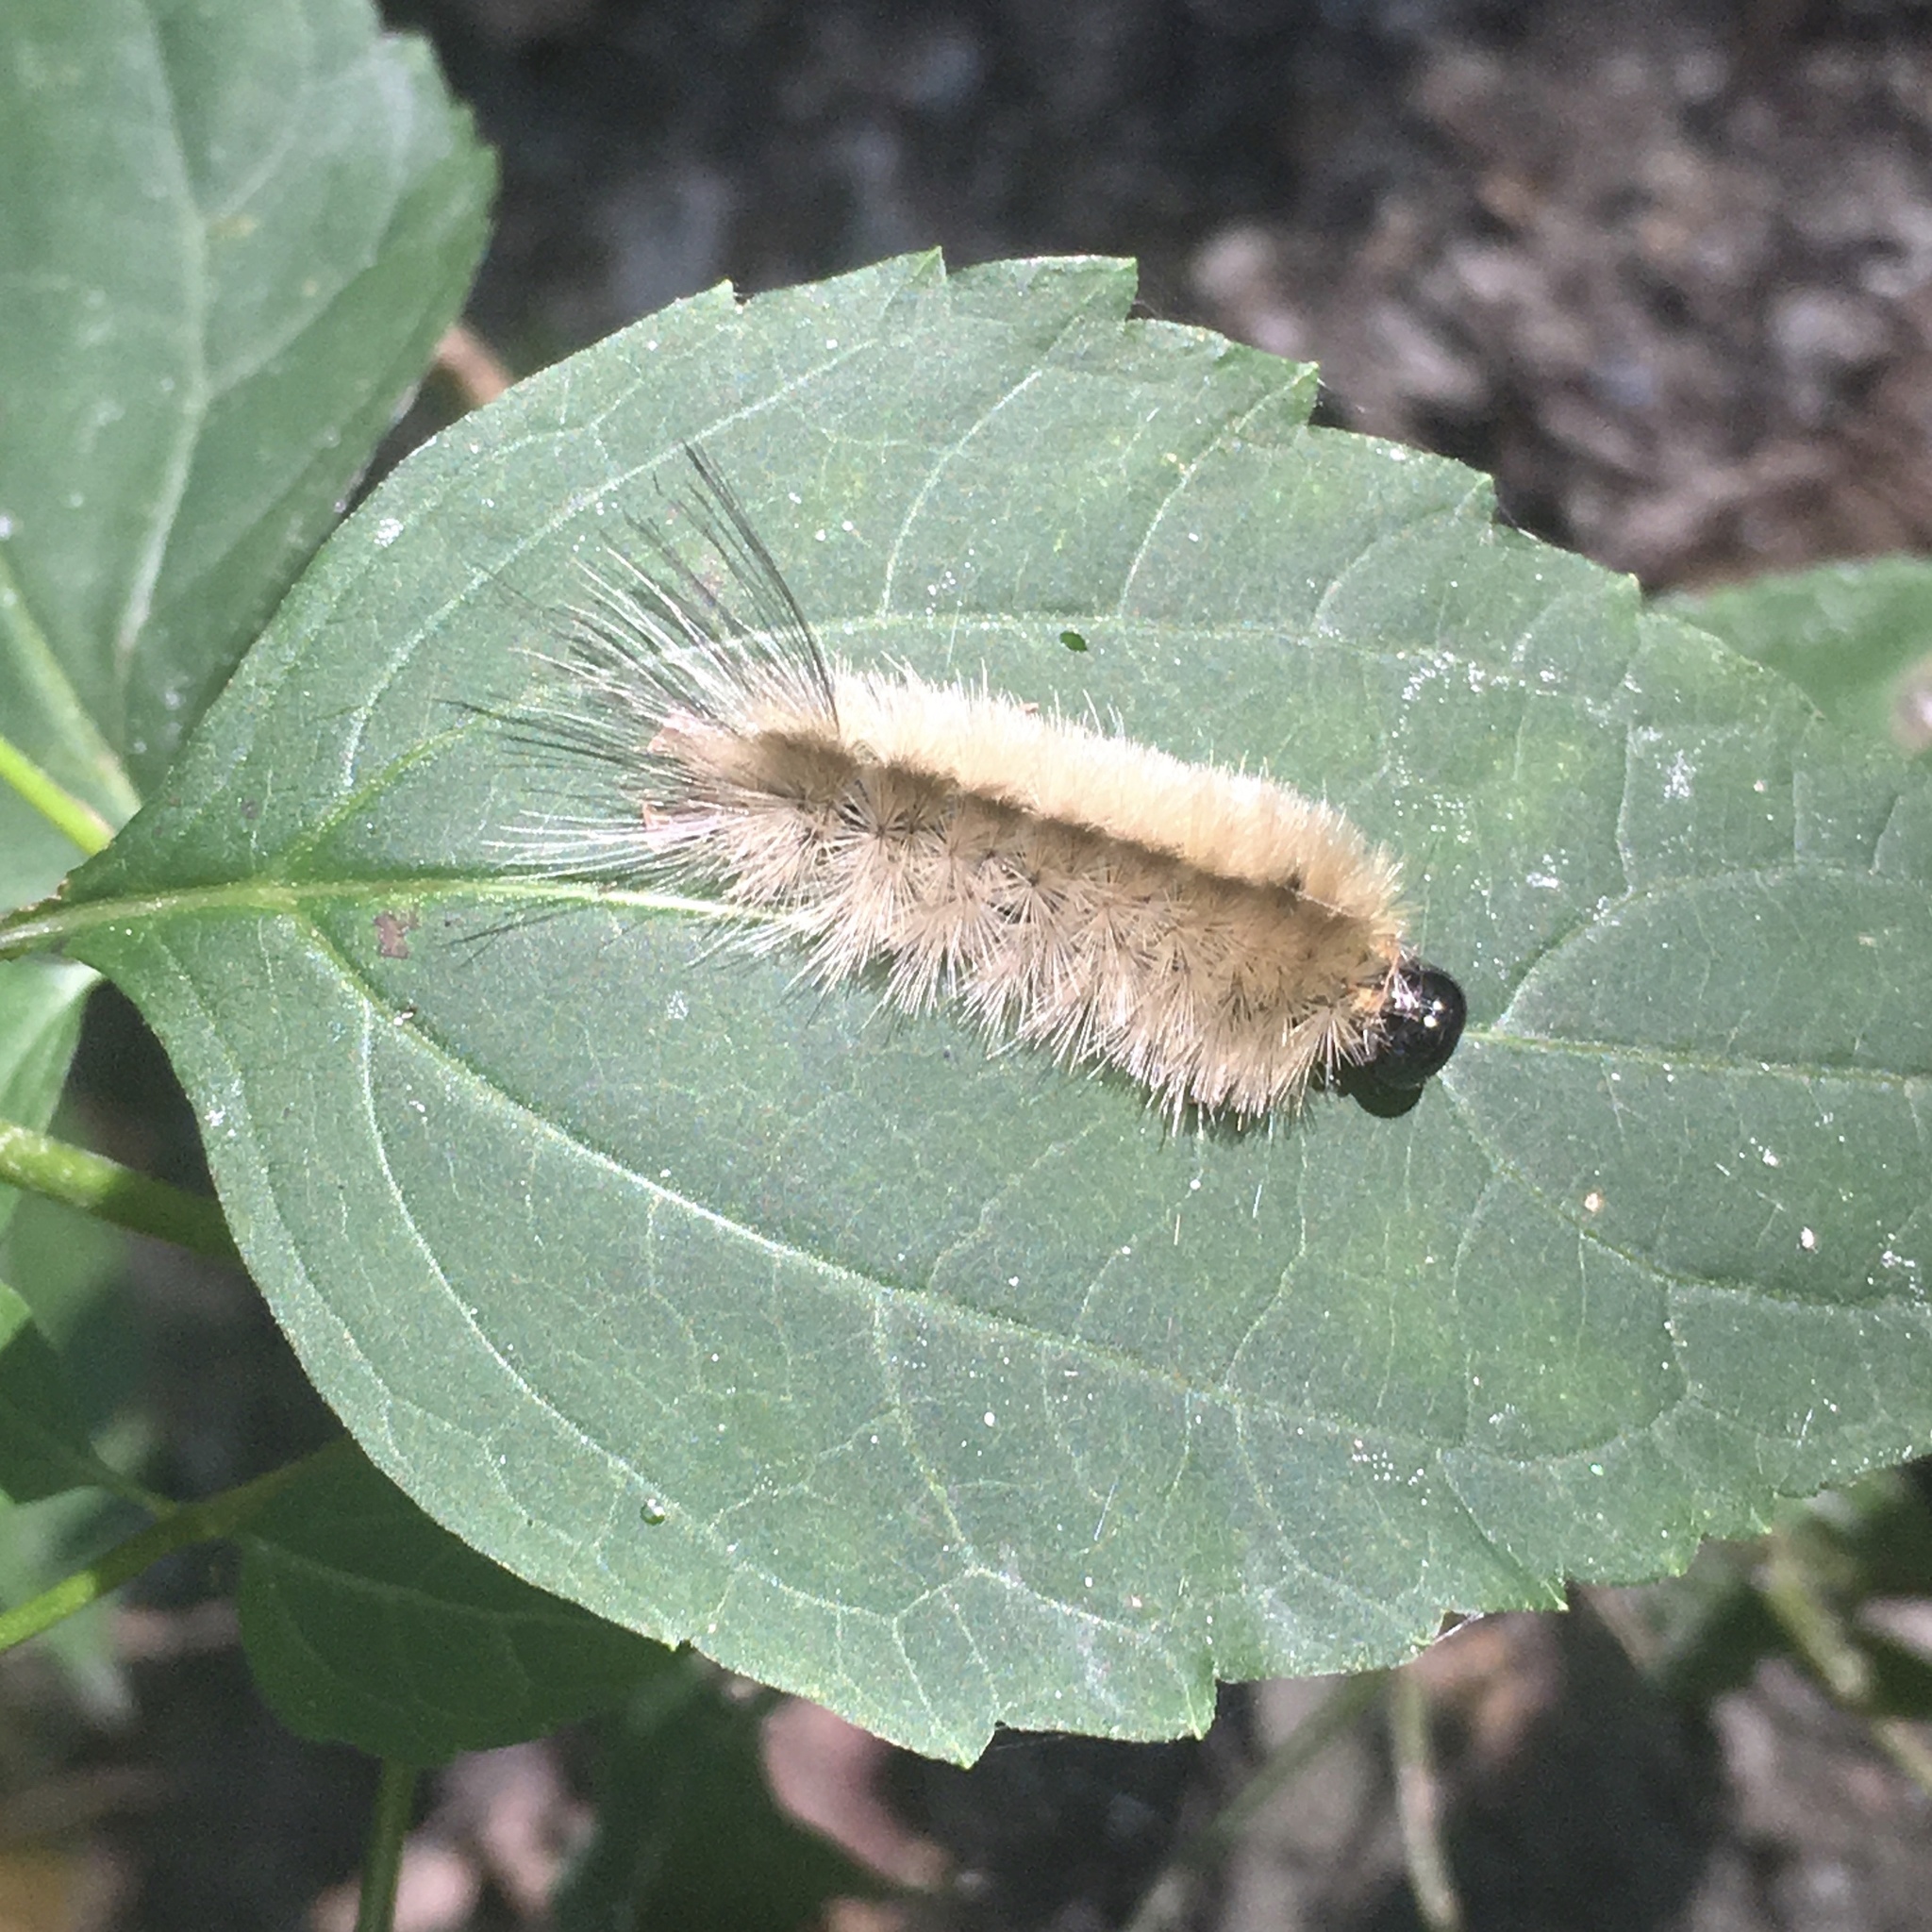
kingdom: Animalia
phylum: Arthropoda
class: Insecta
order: Lepidoptera
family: Erebidae
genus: Halysidota
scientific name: Halysidota tessellaris
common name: Banded tussock moth
